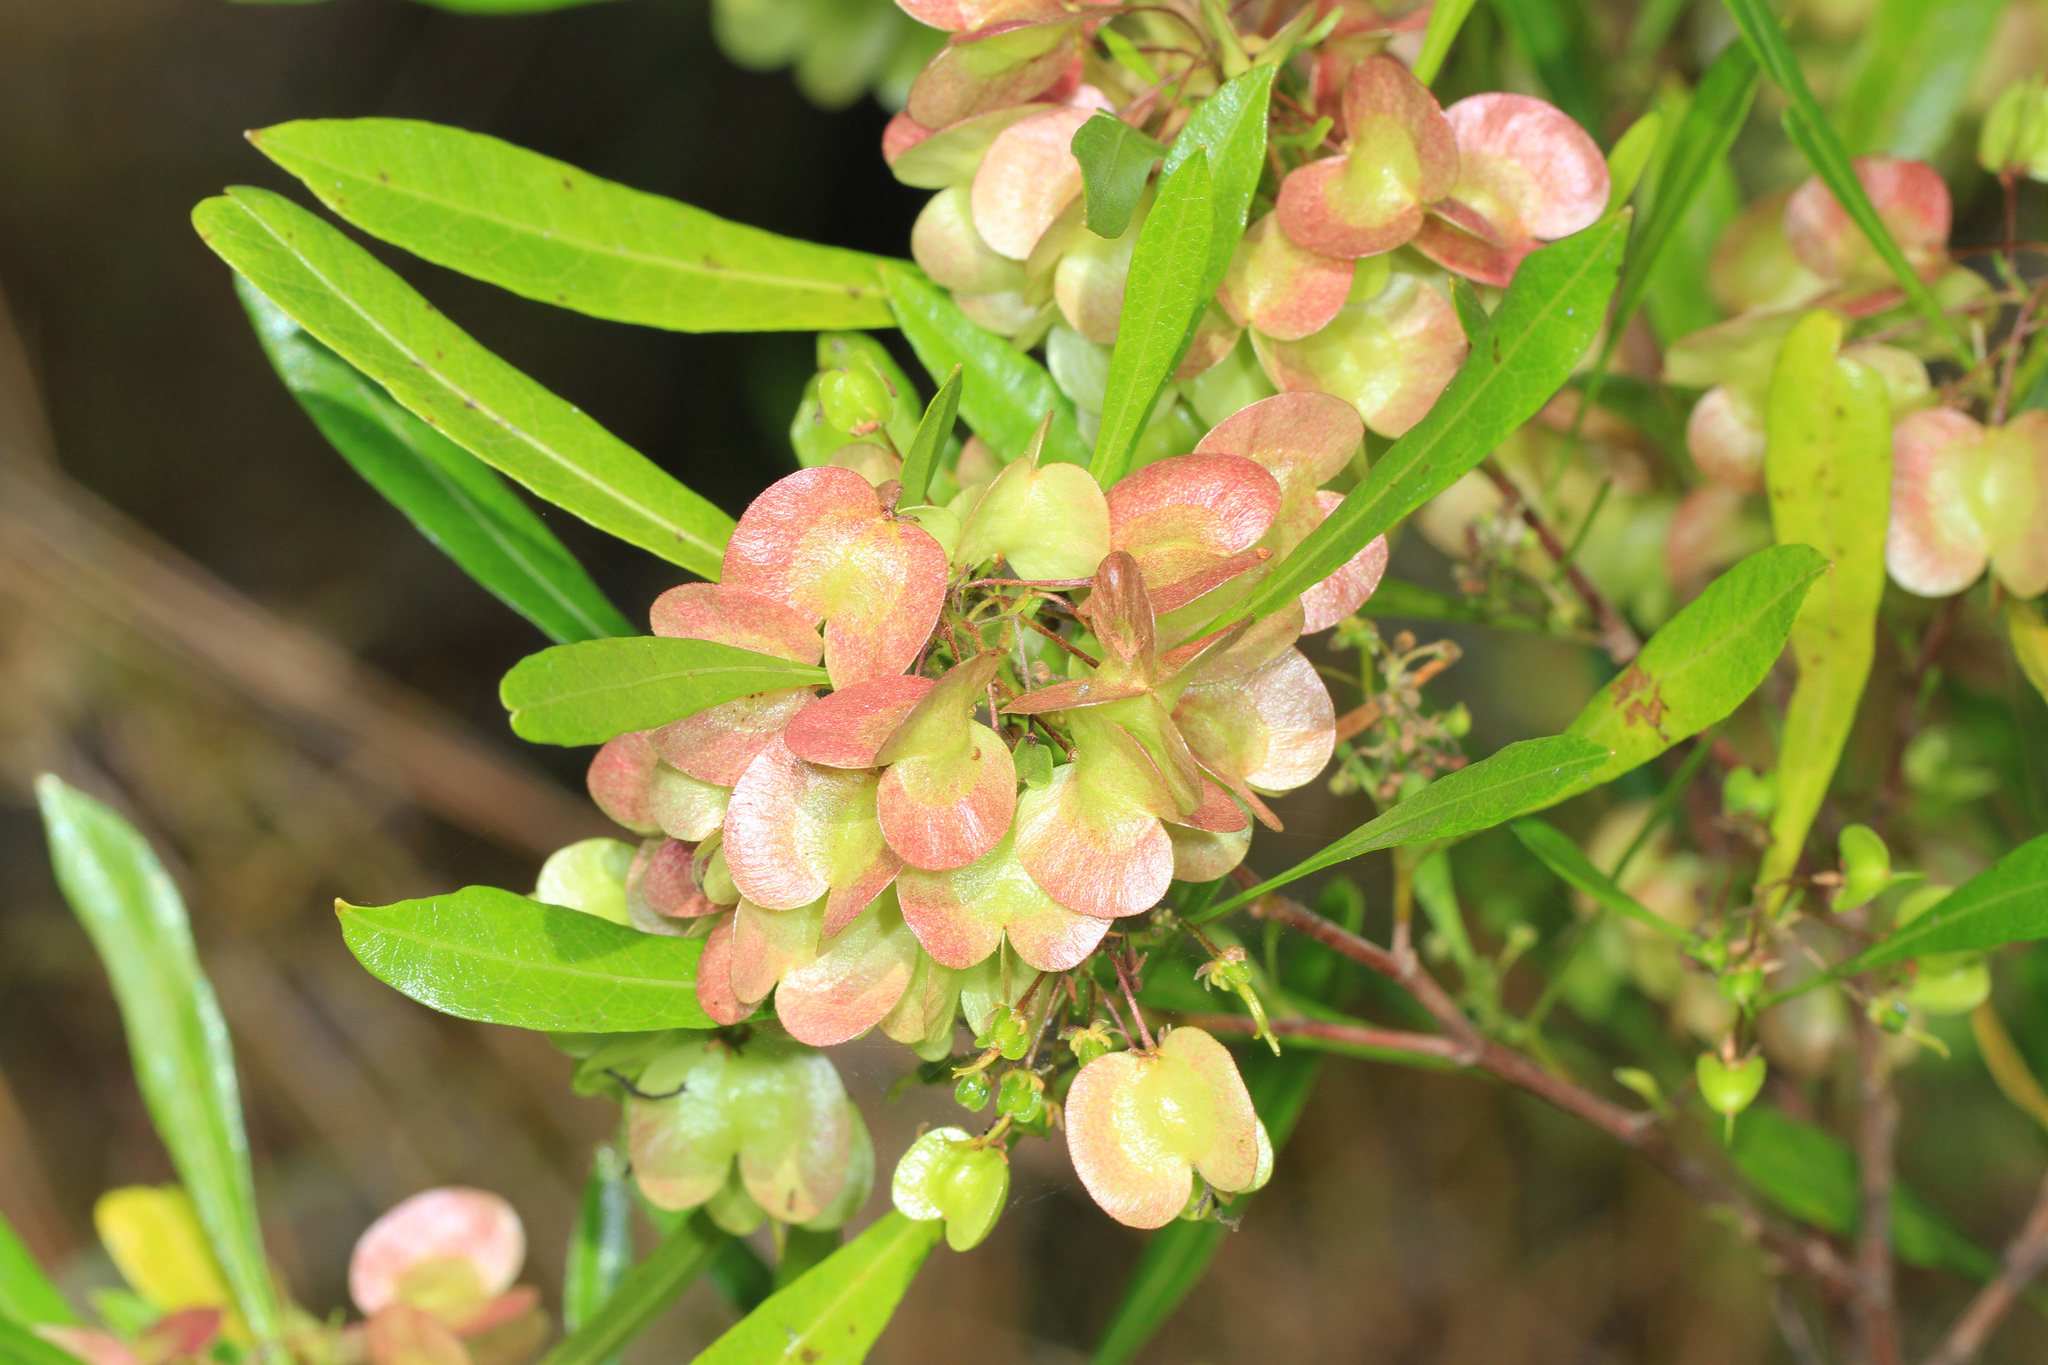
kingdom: Plantae
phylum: Tracheophyta
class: Magnoliopsida
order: Sapindales
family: Sapindaceae
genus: Dodonaea
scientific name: Dodonaea viscosa
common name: Hopbush
